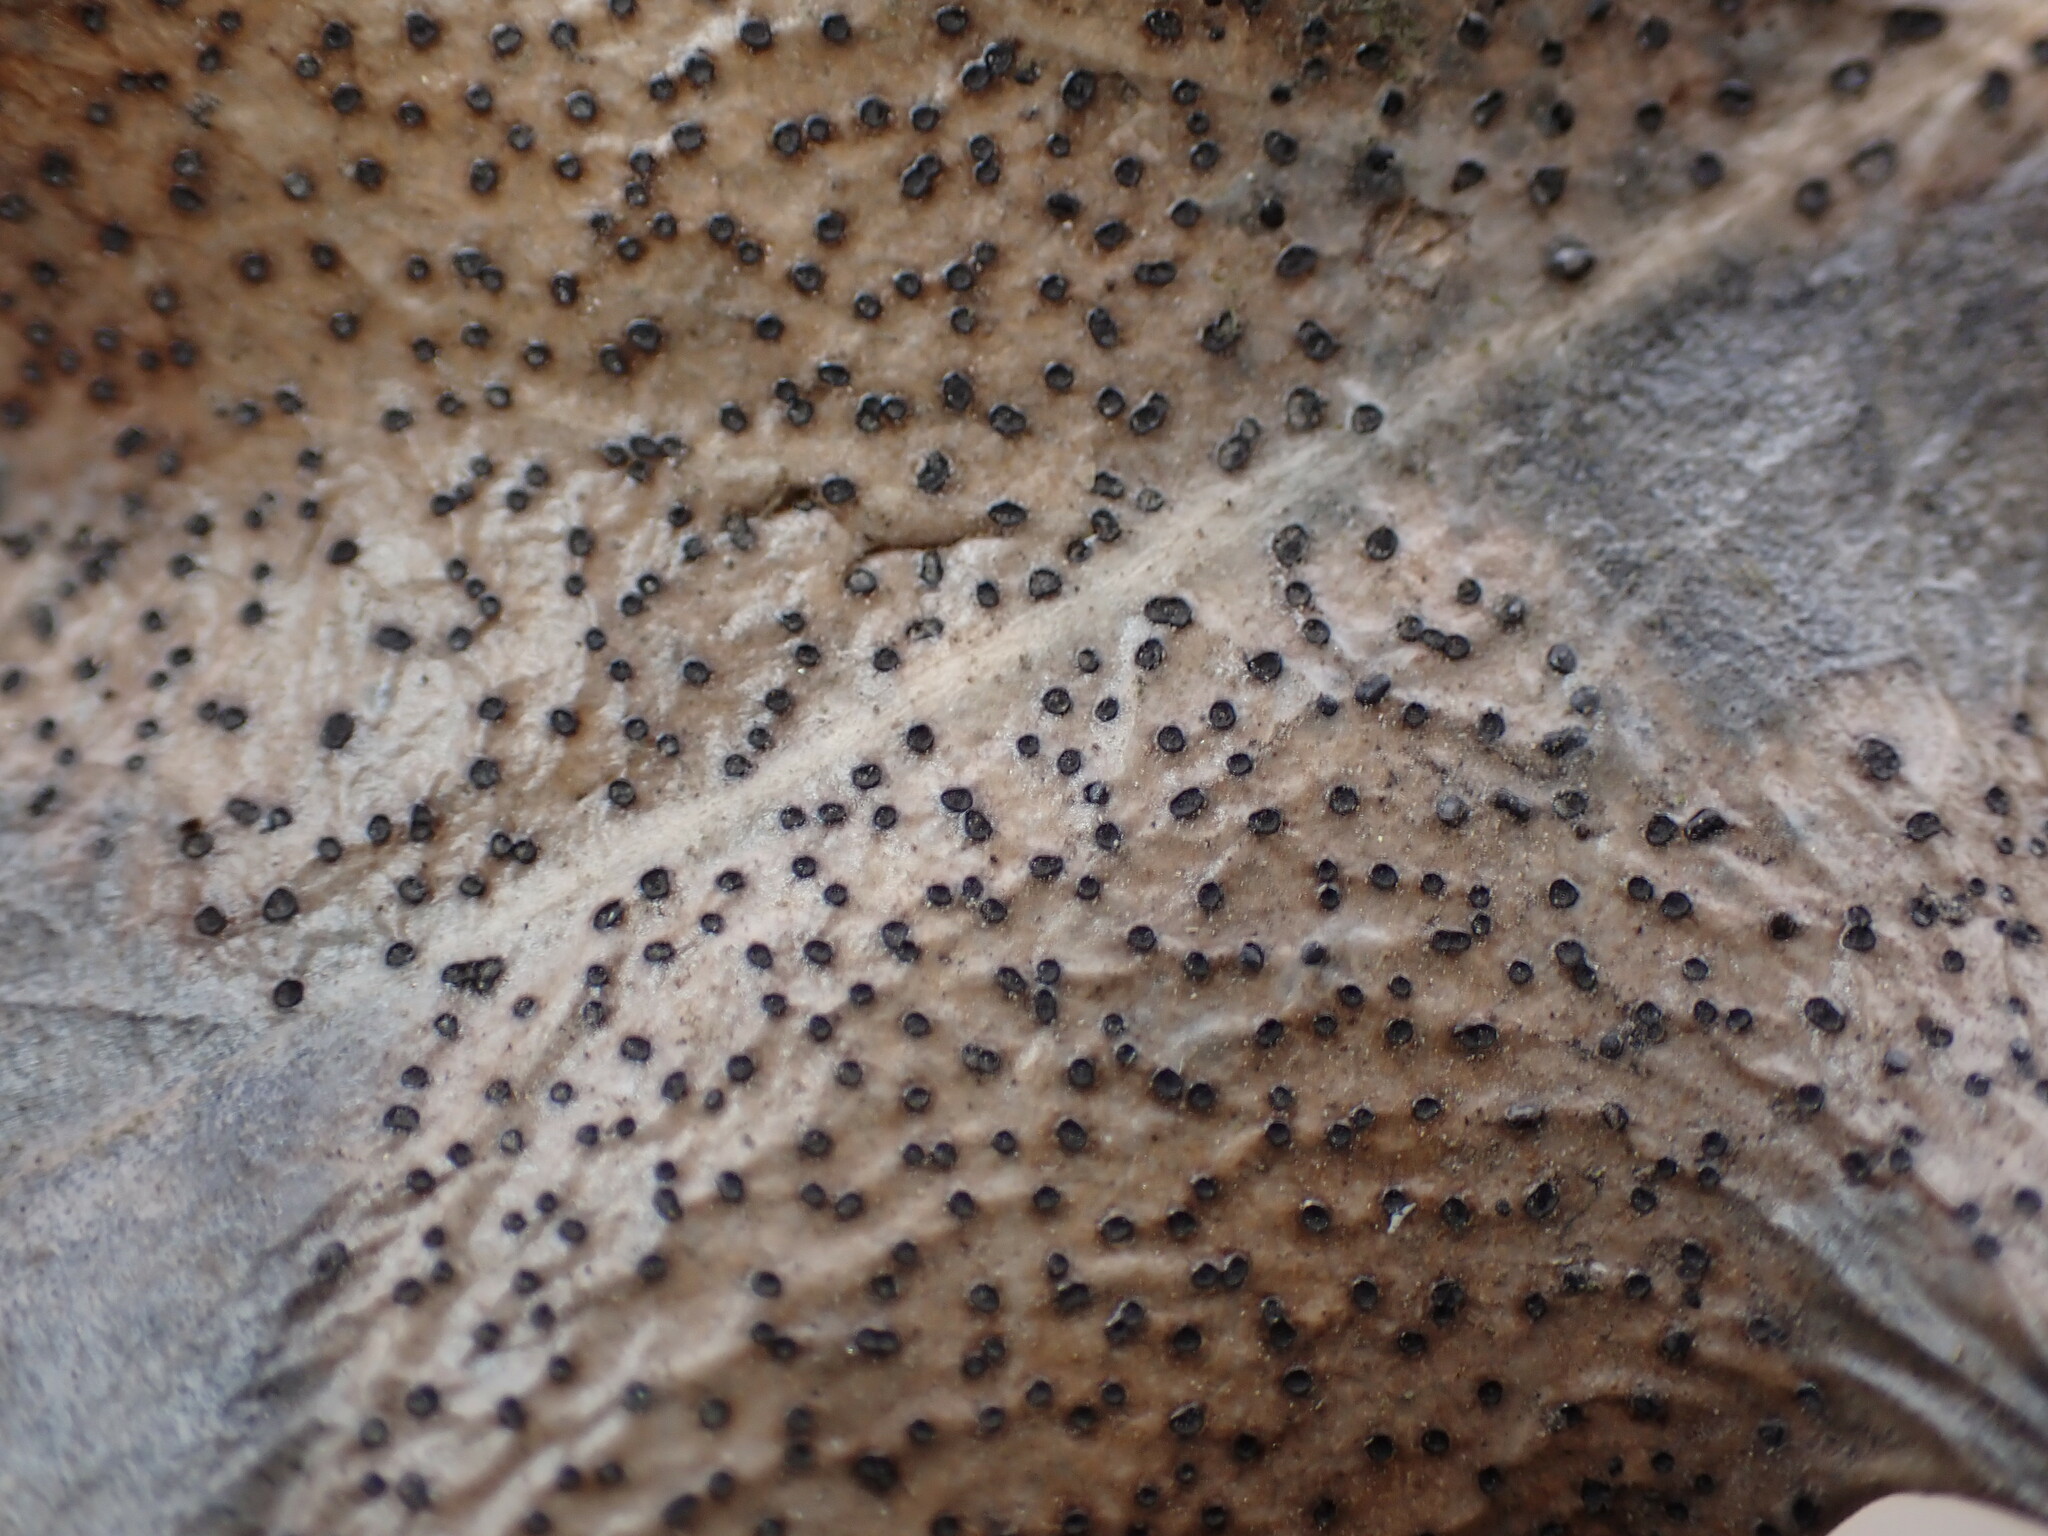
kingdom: Fungi
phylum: Ascomycota
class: Leotiomycetes
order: Helotiales
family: Cenangiaceae
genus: Trochila
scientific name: Trochila ilicina
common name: Holly speckle
